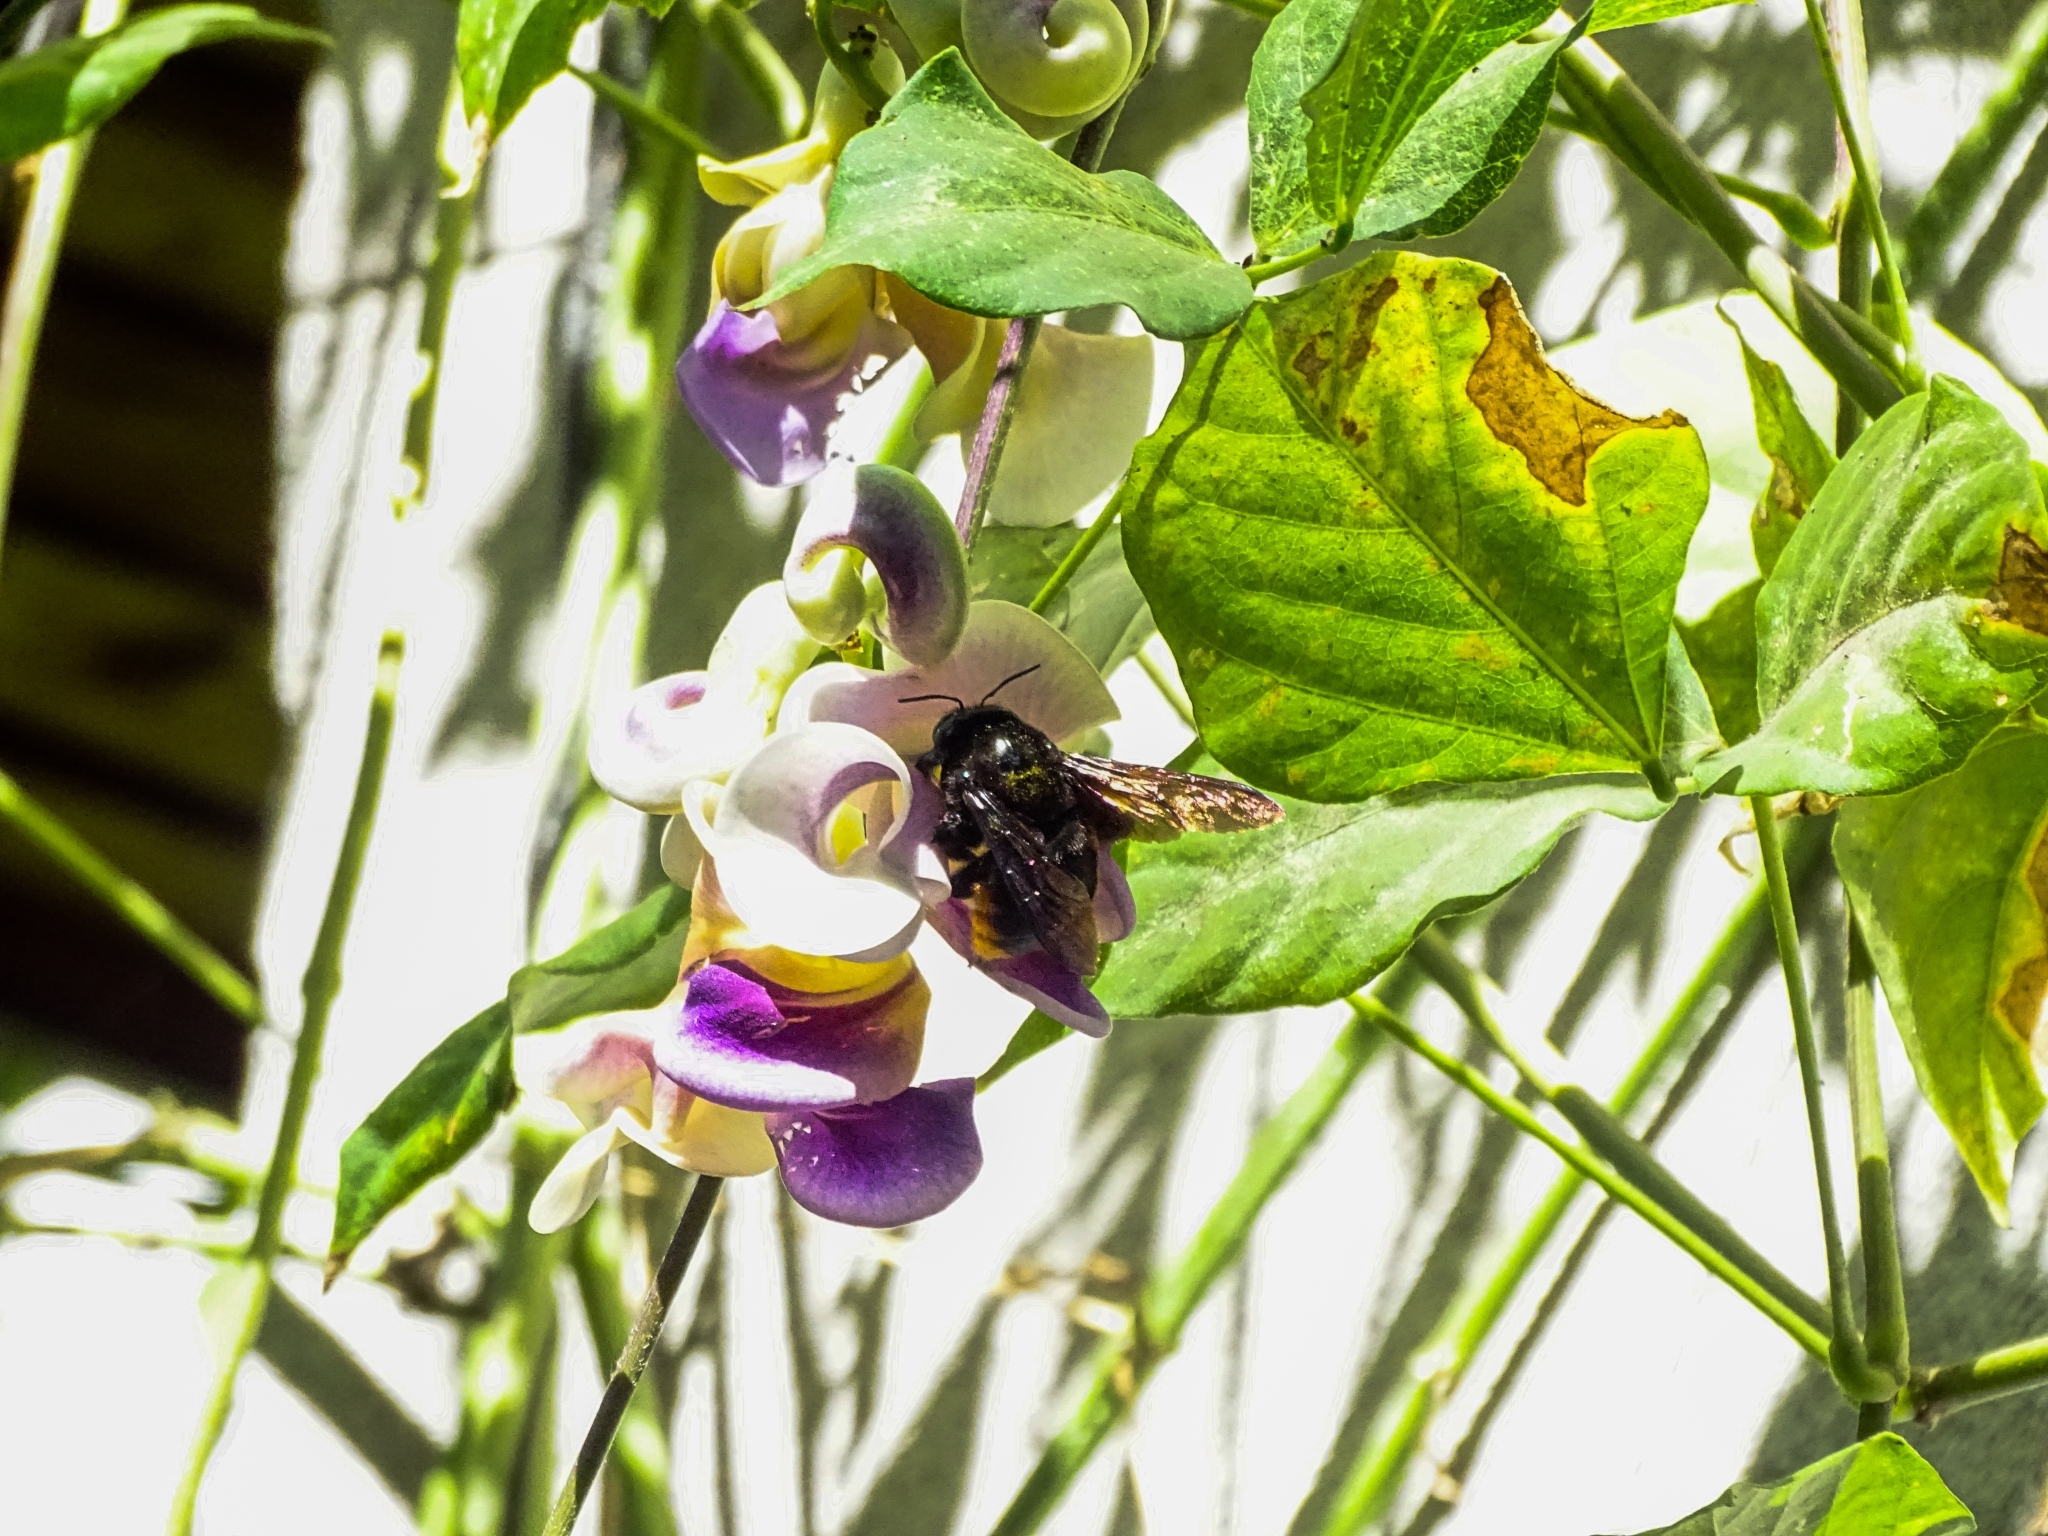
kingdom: Animalia
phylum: Arthropoda
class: Insecta
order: Hymenoptera
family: Apidae
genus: Xylocopa
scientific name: Xylocopa augusti
